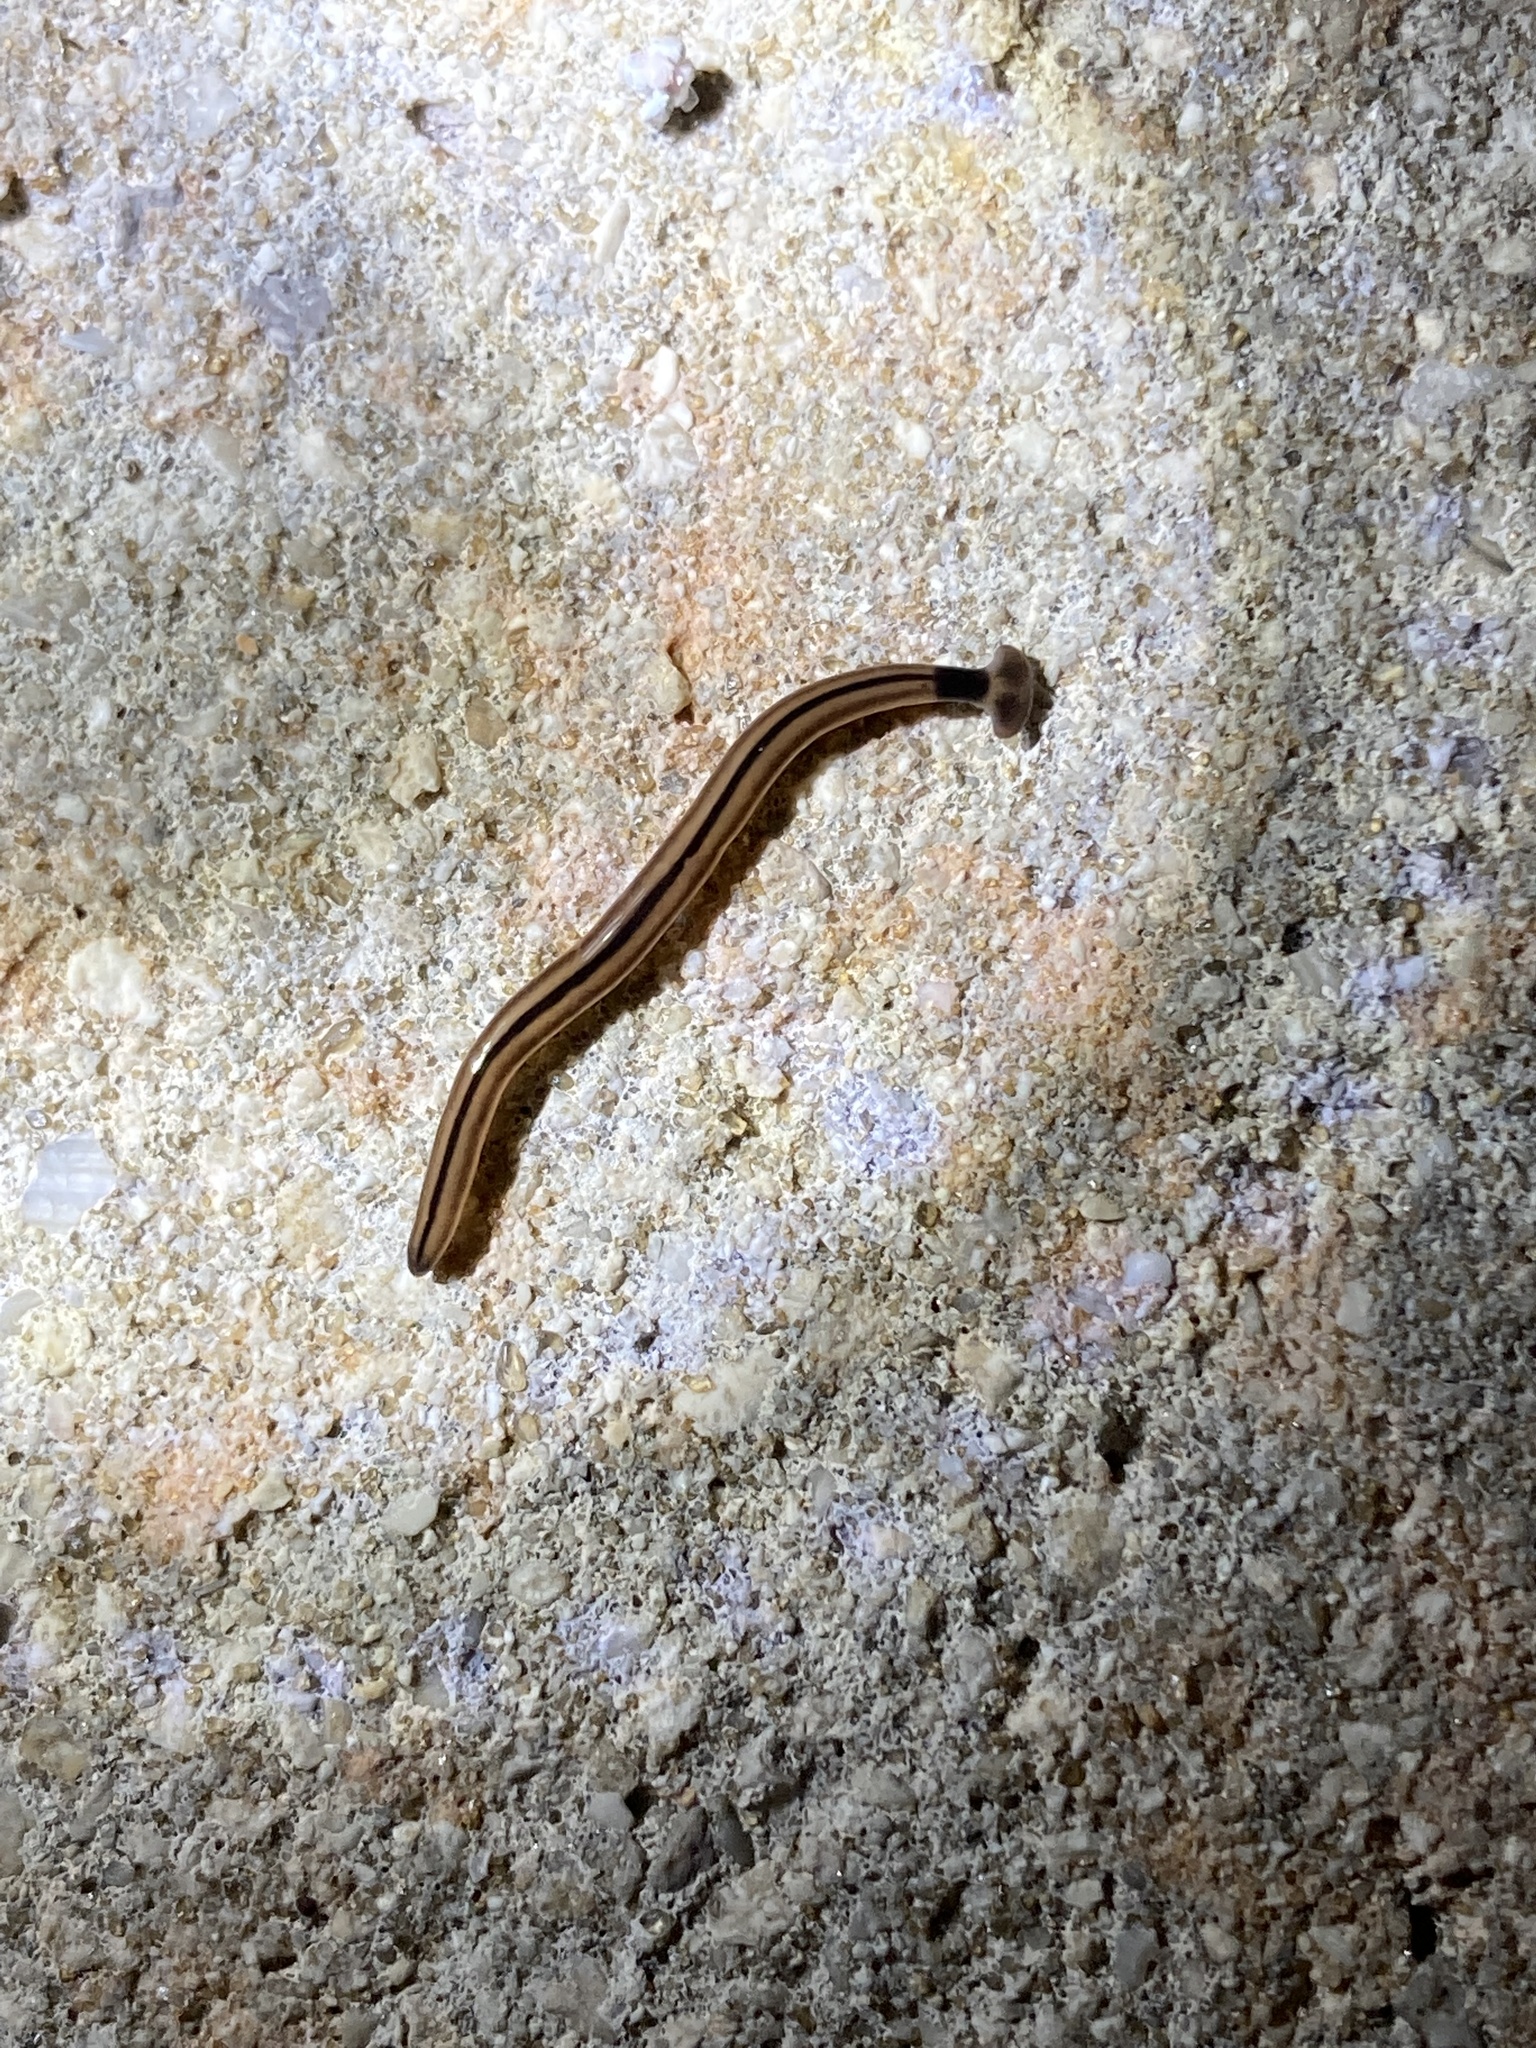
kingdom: Animalia
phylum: Platyhelminthes
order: Tricladida
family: Geoplanidae
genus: Bipalium
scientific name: Bipalium vagum
